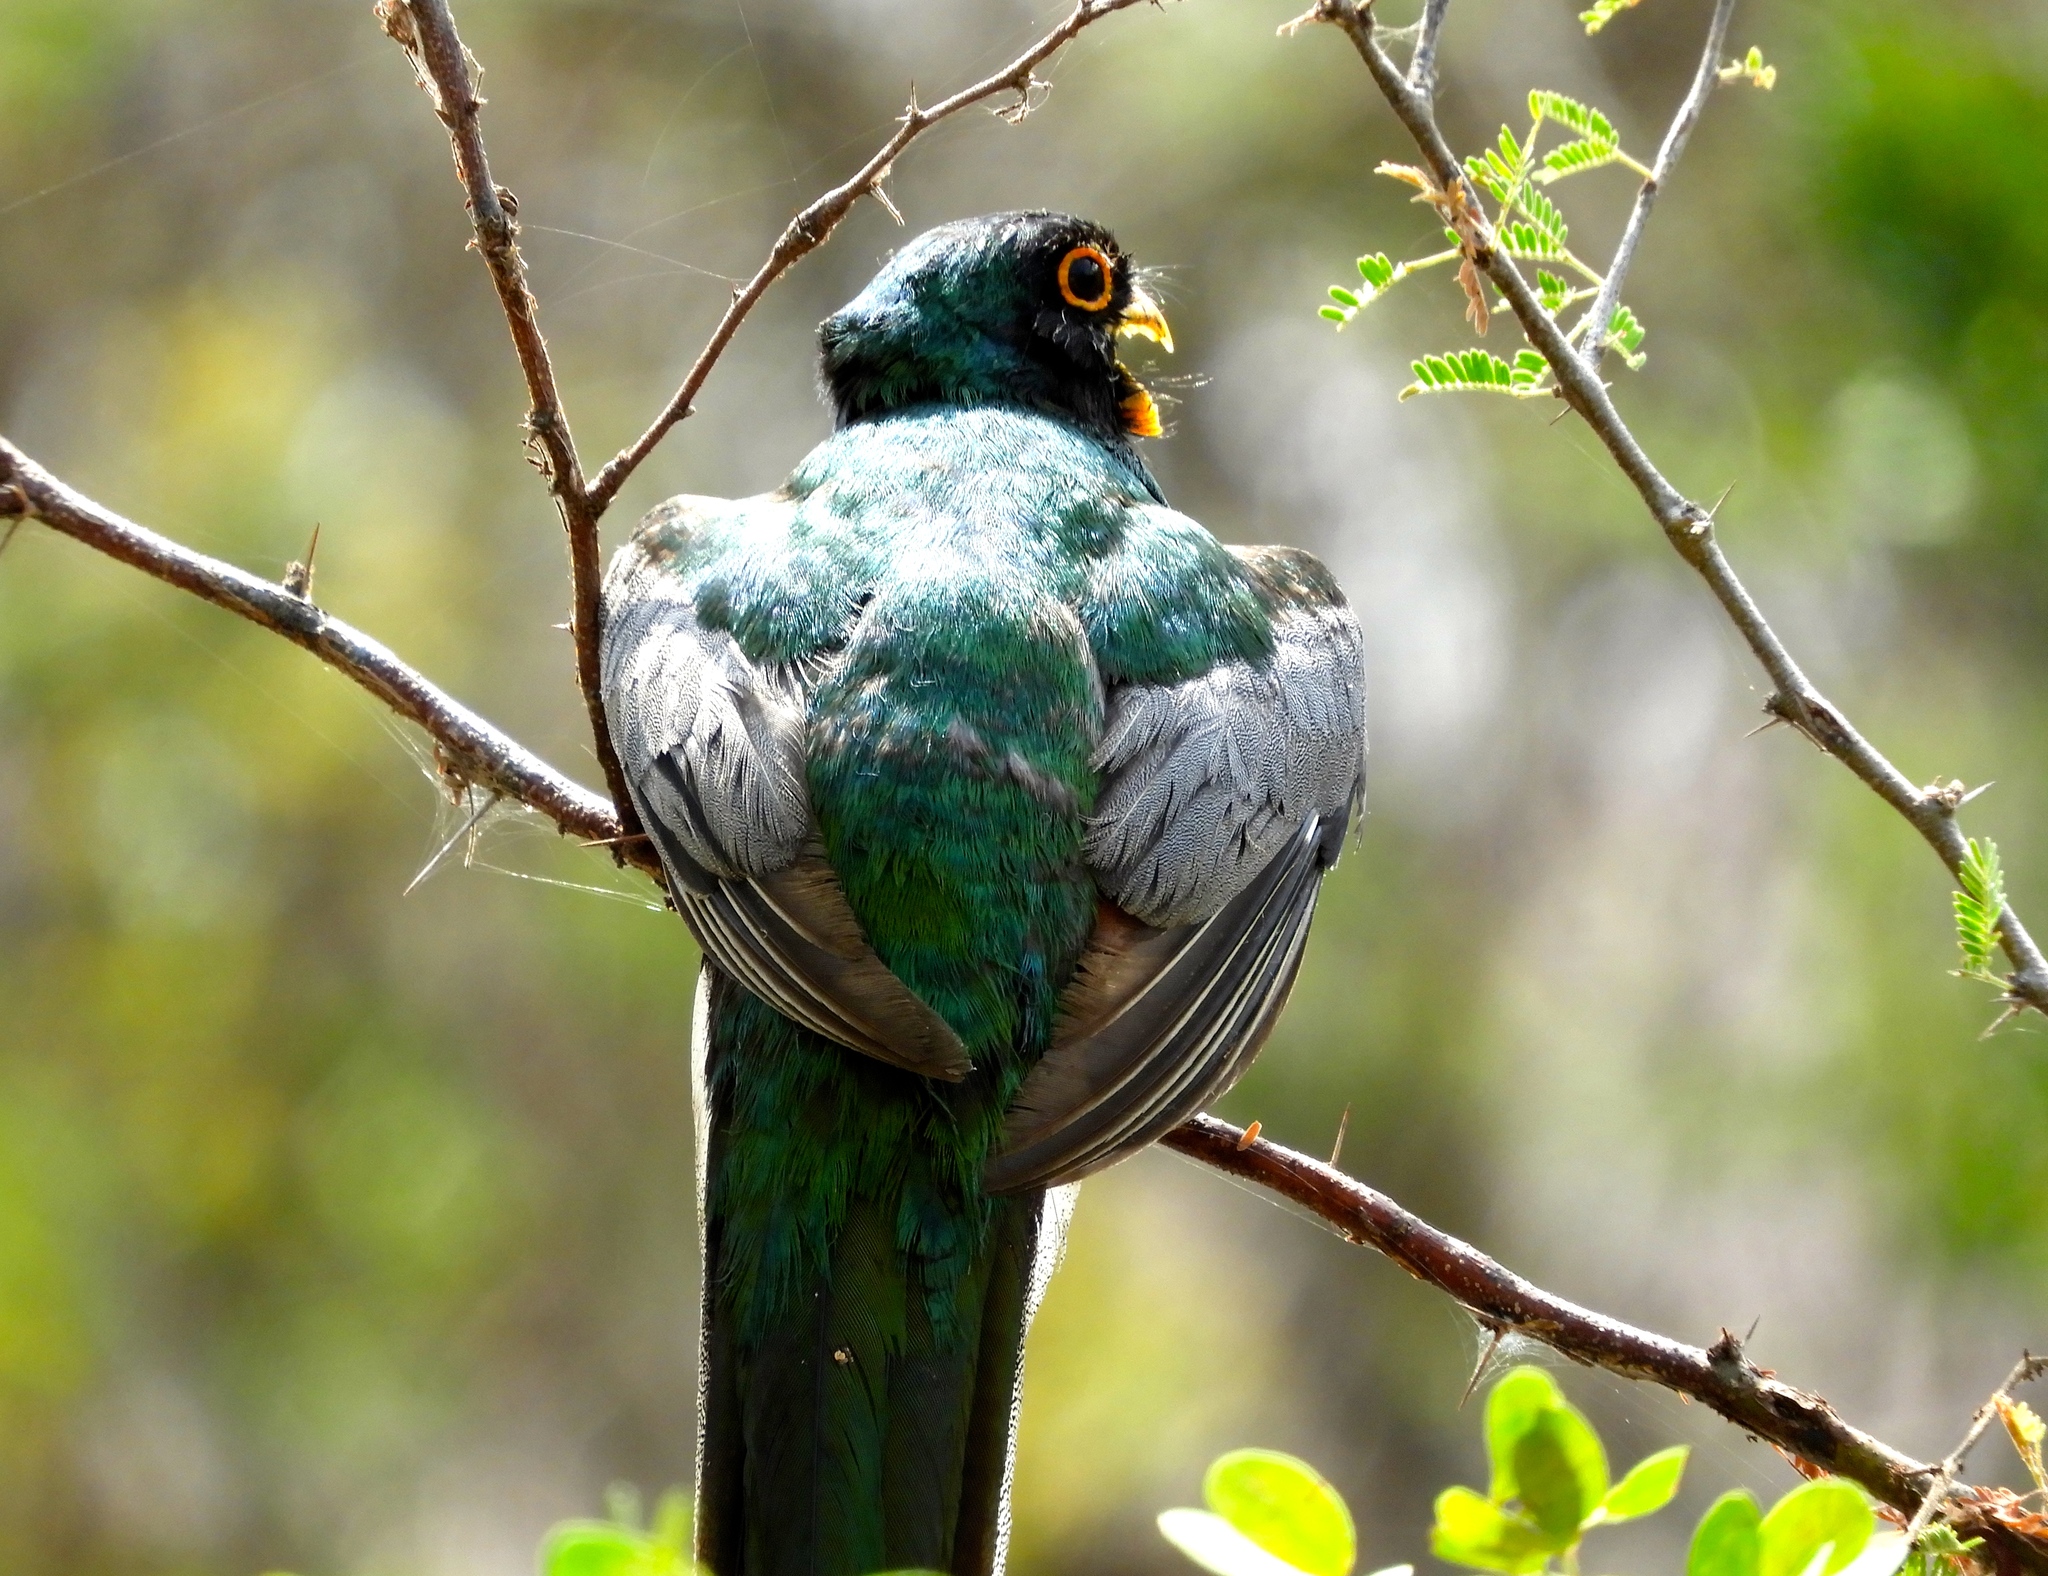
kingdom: Animalia
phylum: Chordata
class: Aves
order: Trogoniformes
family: Trogonidae
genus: Trogon
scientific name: Trogon elegans
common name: Elegant trogon
